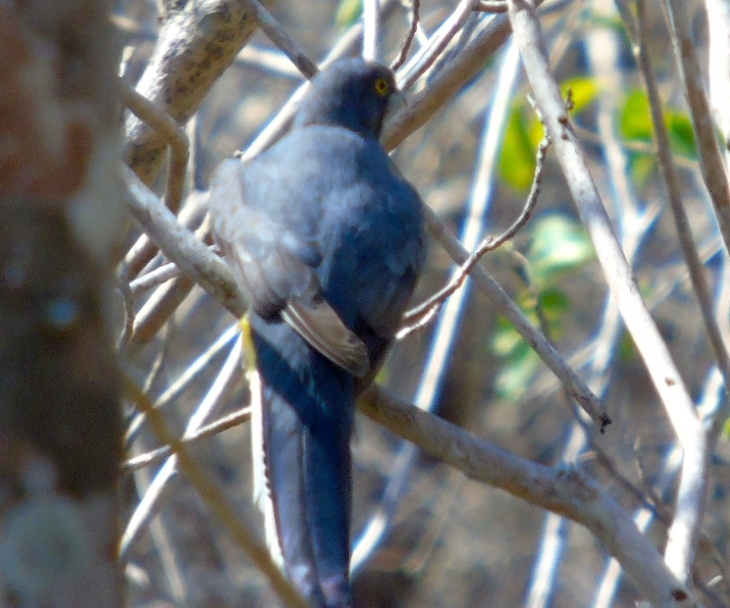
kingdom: Animalia
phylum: Chordata
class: Aves
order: Trogoniformes
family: Trogonidae
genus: Trogon
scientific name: Trogon citreolus
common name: Citreoline trogon
